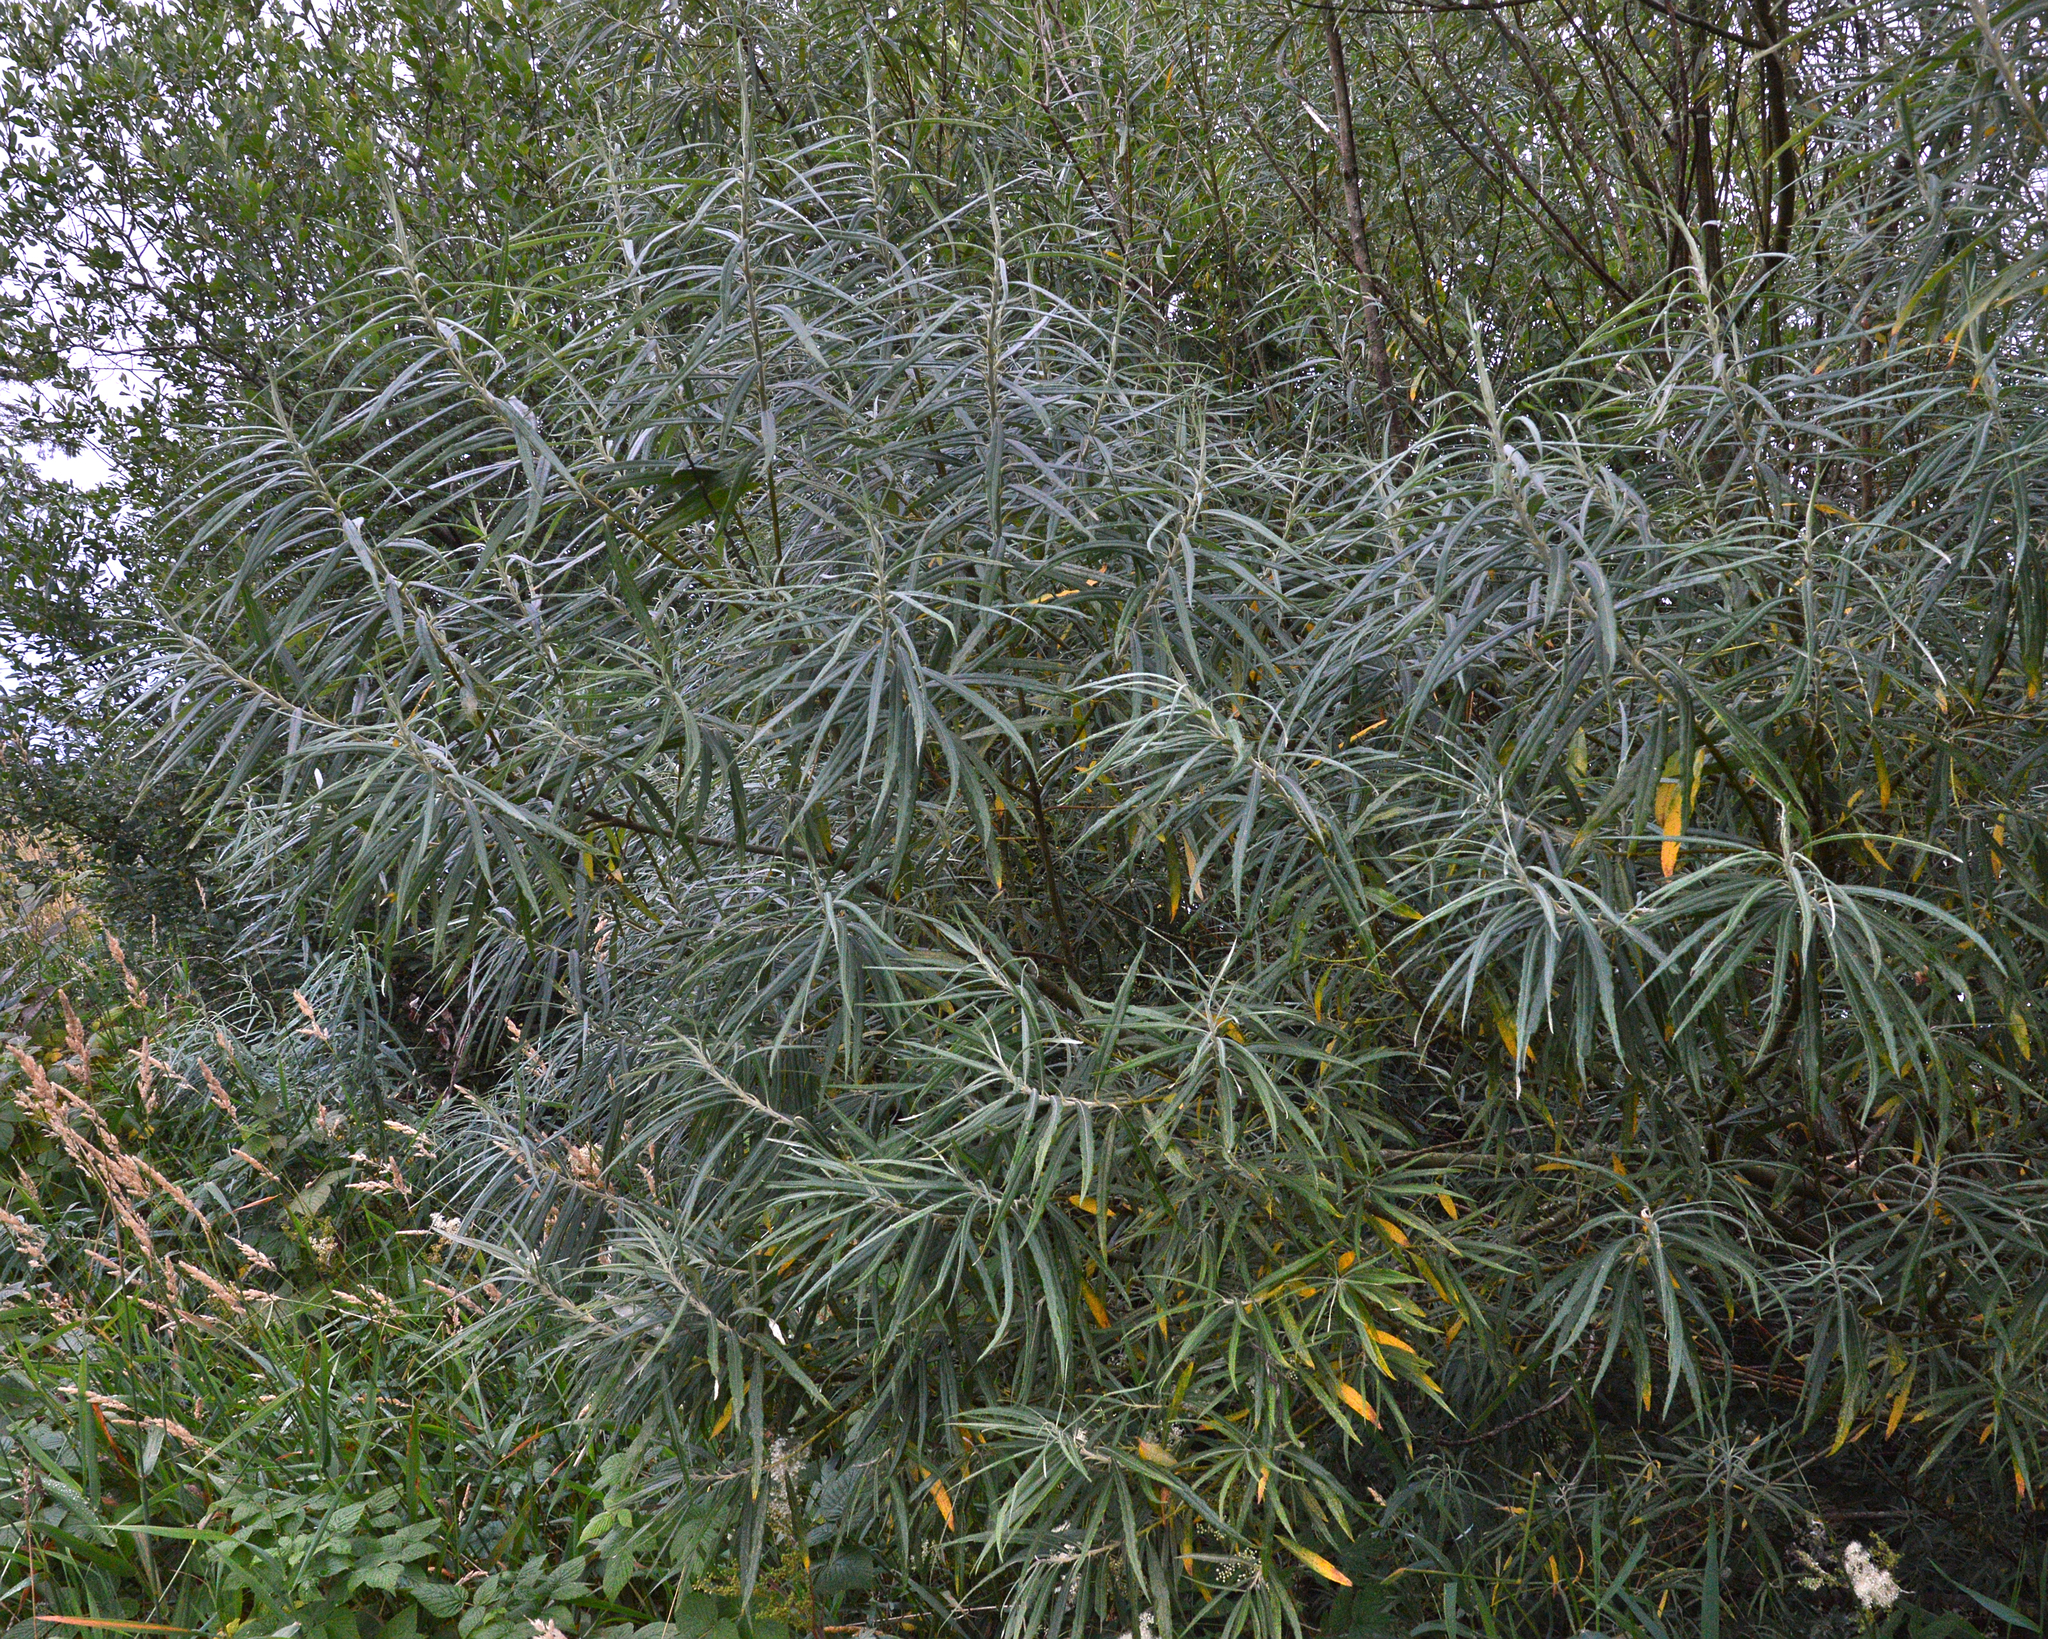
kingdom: Plantae
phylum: Tracheophyta
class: Magnoliopsida
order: Malpighiales
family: Salicaceae
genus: Salix
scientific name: Salix viminalis
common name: Osier
